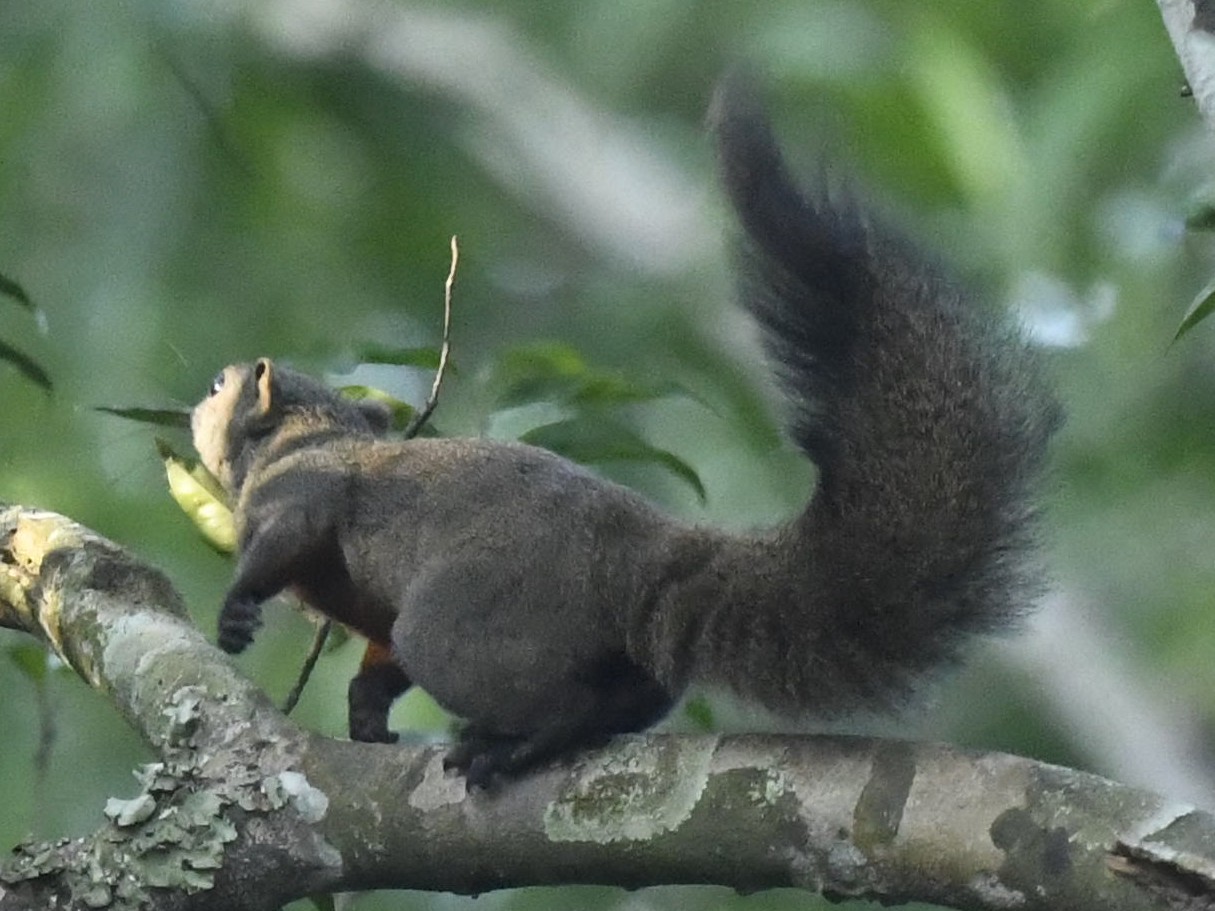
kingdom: Animalia
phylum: Chordata
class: Mammalia
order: Rodentia
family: Sciuridae
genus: Callosciurus
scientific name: Callosciurus erythraeus
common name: Pallas's squirrel
